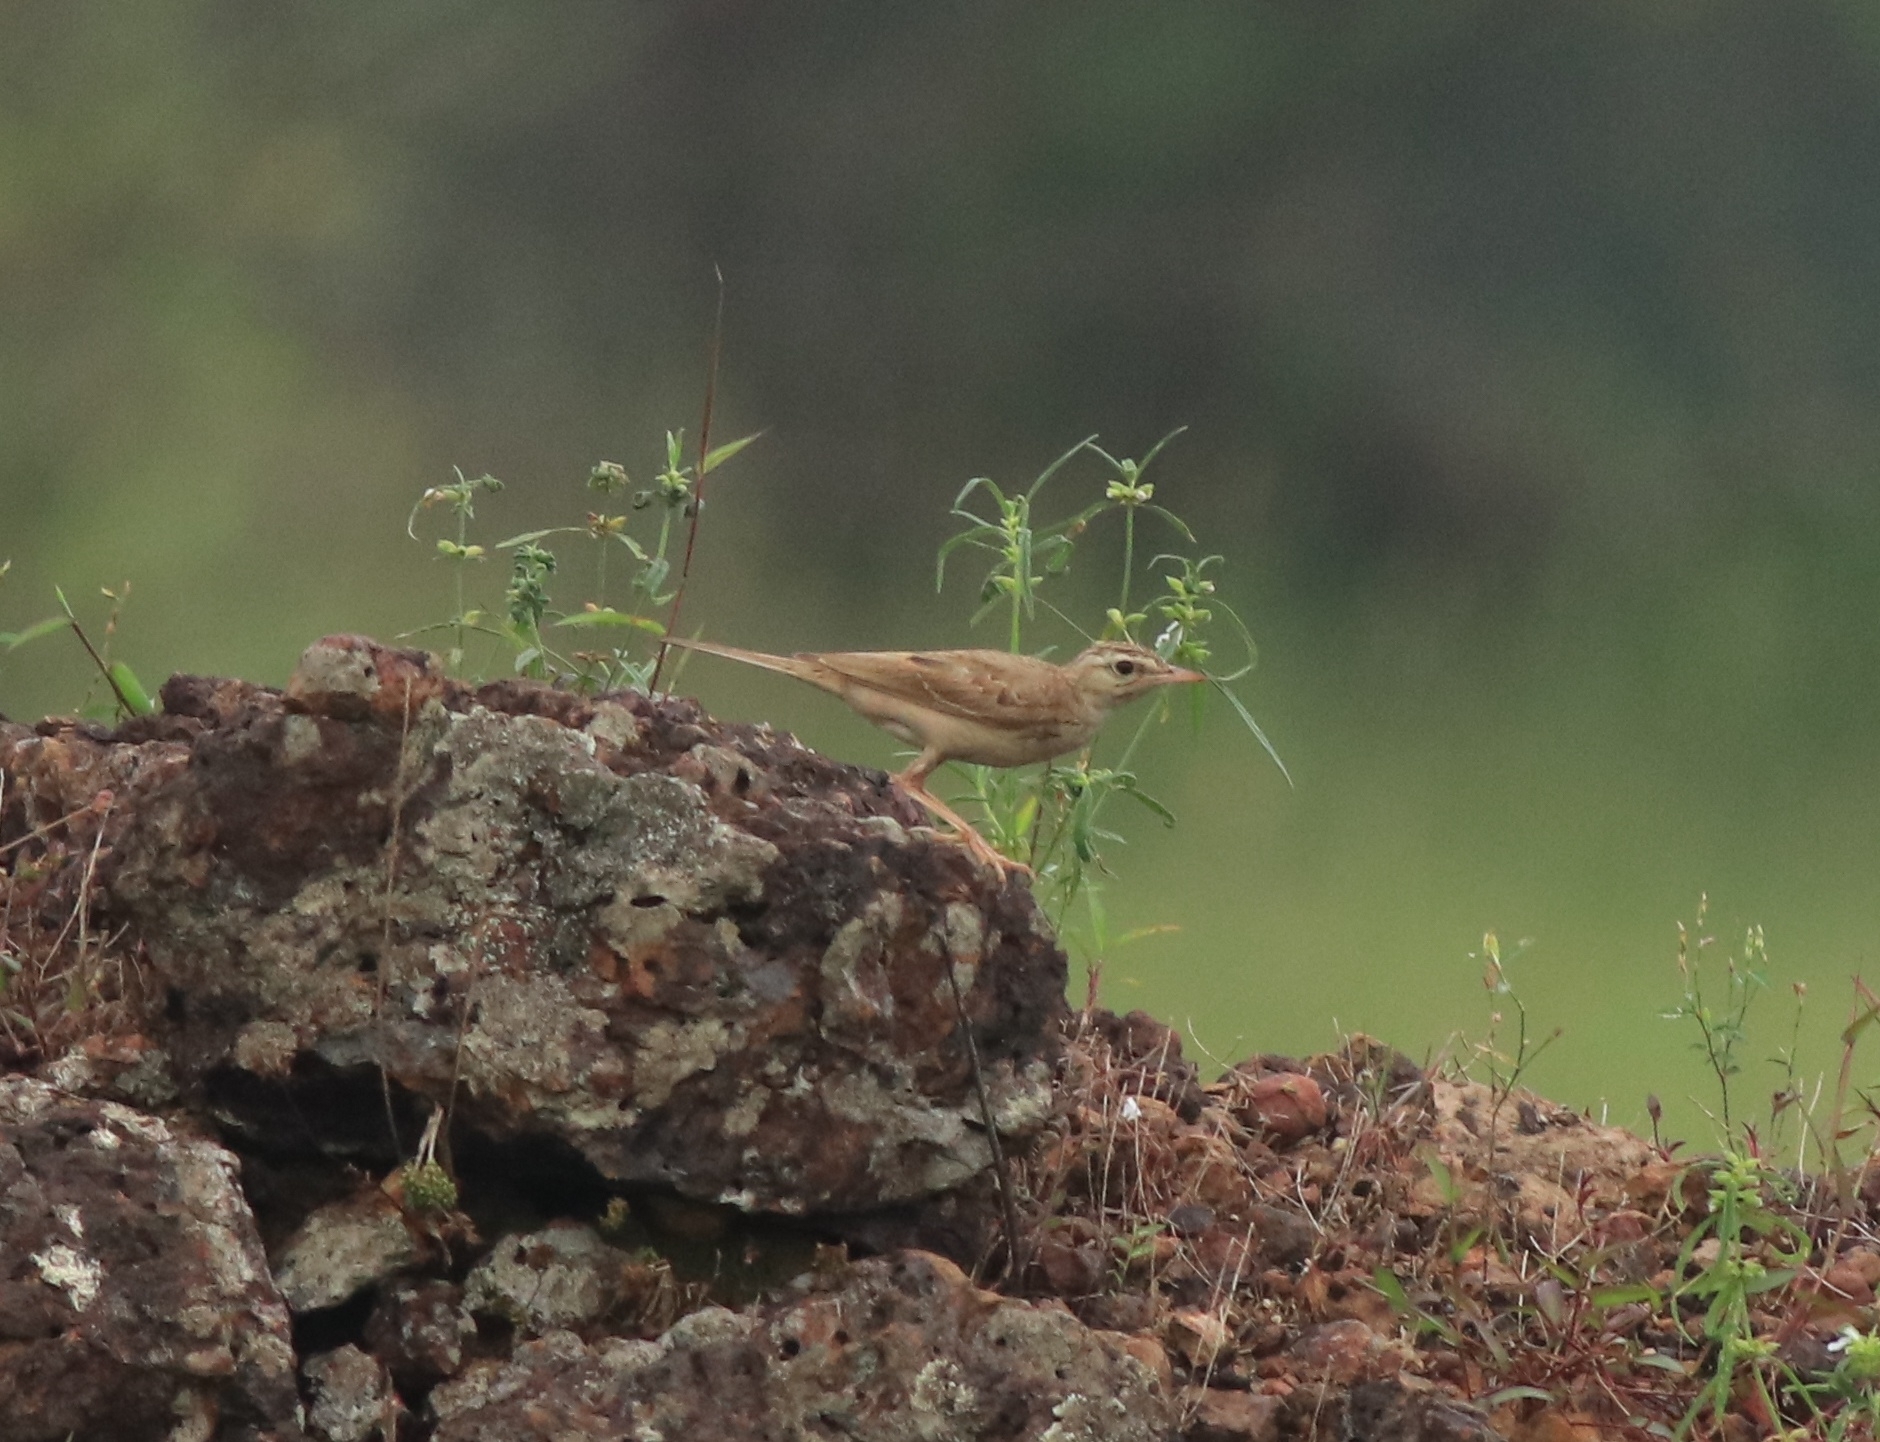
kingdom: Animalia
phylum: Chordata
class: Aves
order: Passeriformes
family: Motacillidae
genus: Anthus
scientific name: Anthus campestris
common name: Tawny pipit
